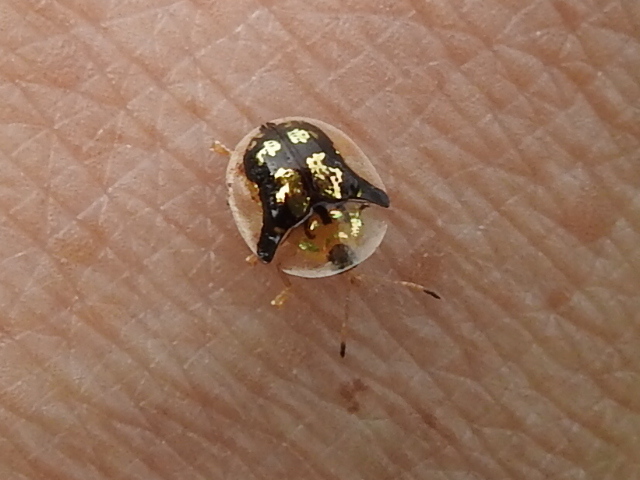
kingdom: Animalia
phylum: Arthropoda
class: Insecta
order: Coleoptera
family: Chrysomelidae
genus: Deloyala
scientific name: Deloyala guttata
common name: Mottled tortoise beetle
